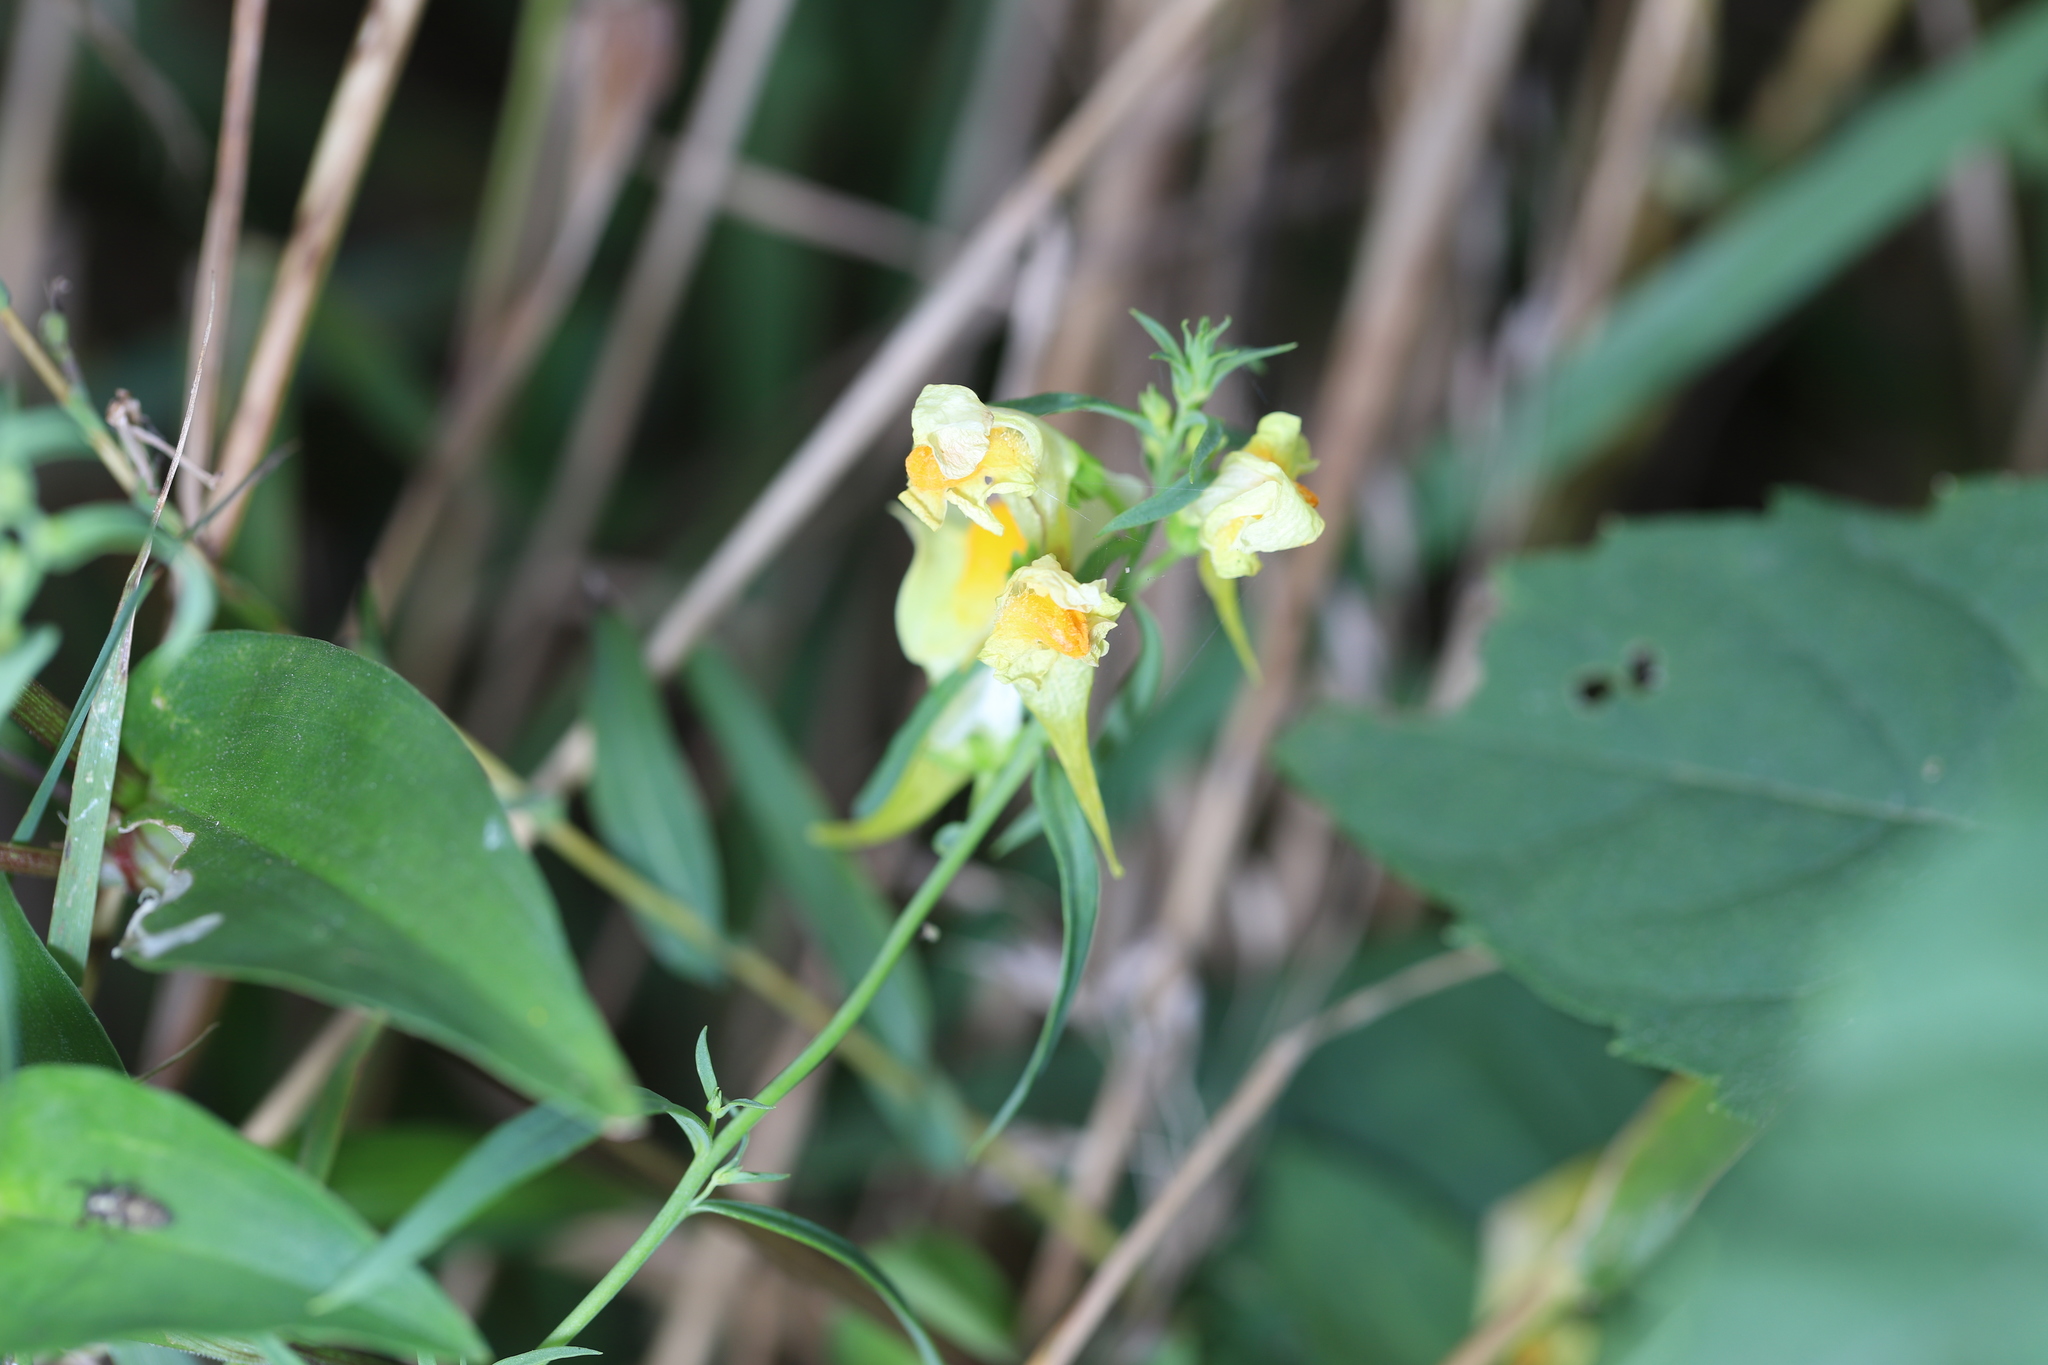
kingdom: Plantae
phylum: Tracheophyta
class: Magnoliopsida
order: Lamiales
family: Plantaginaceae
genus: Linaria
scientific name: Linaria vulgaris
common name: Butter and eggs
